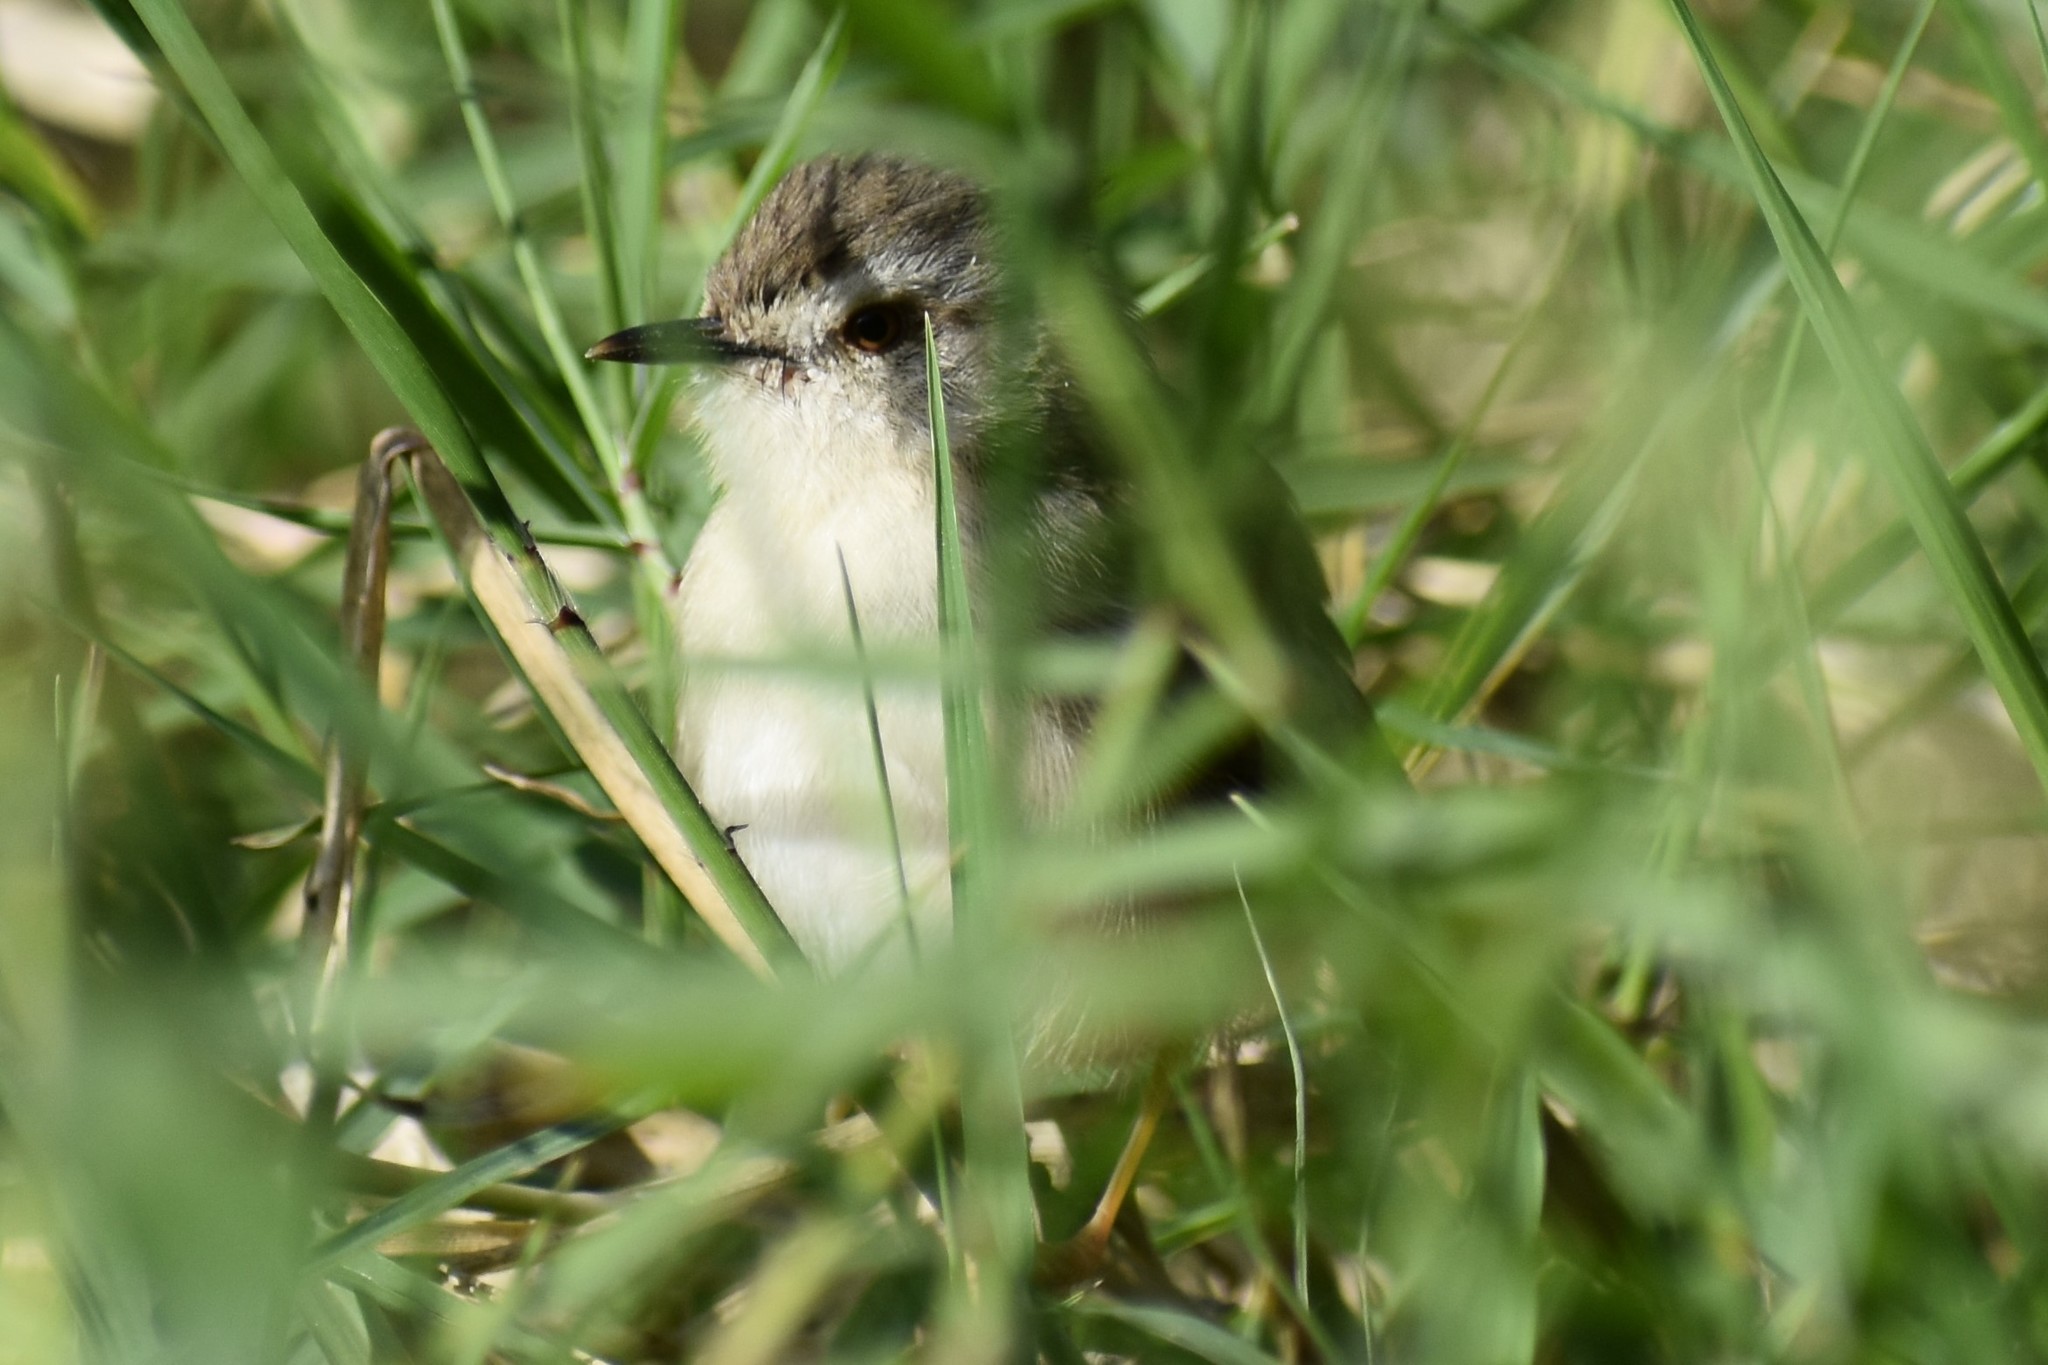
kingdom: Animalia
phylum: Chordata
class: Aves
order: Passeriformes
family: Cisticolidae
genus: Prinia
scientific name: Prinia subflava
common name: Tawny-flanked prinia
